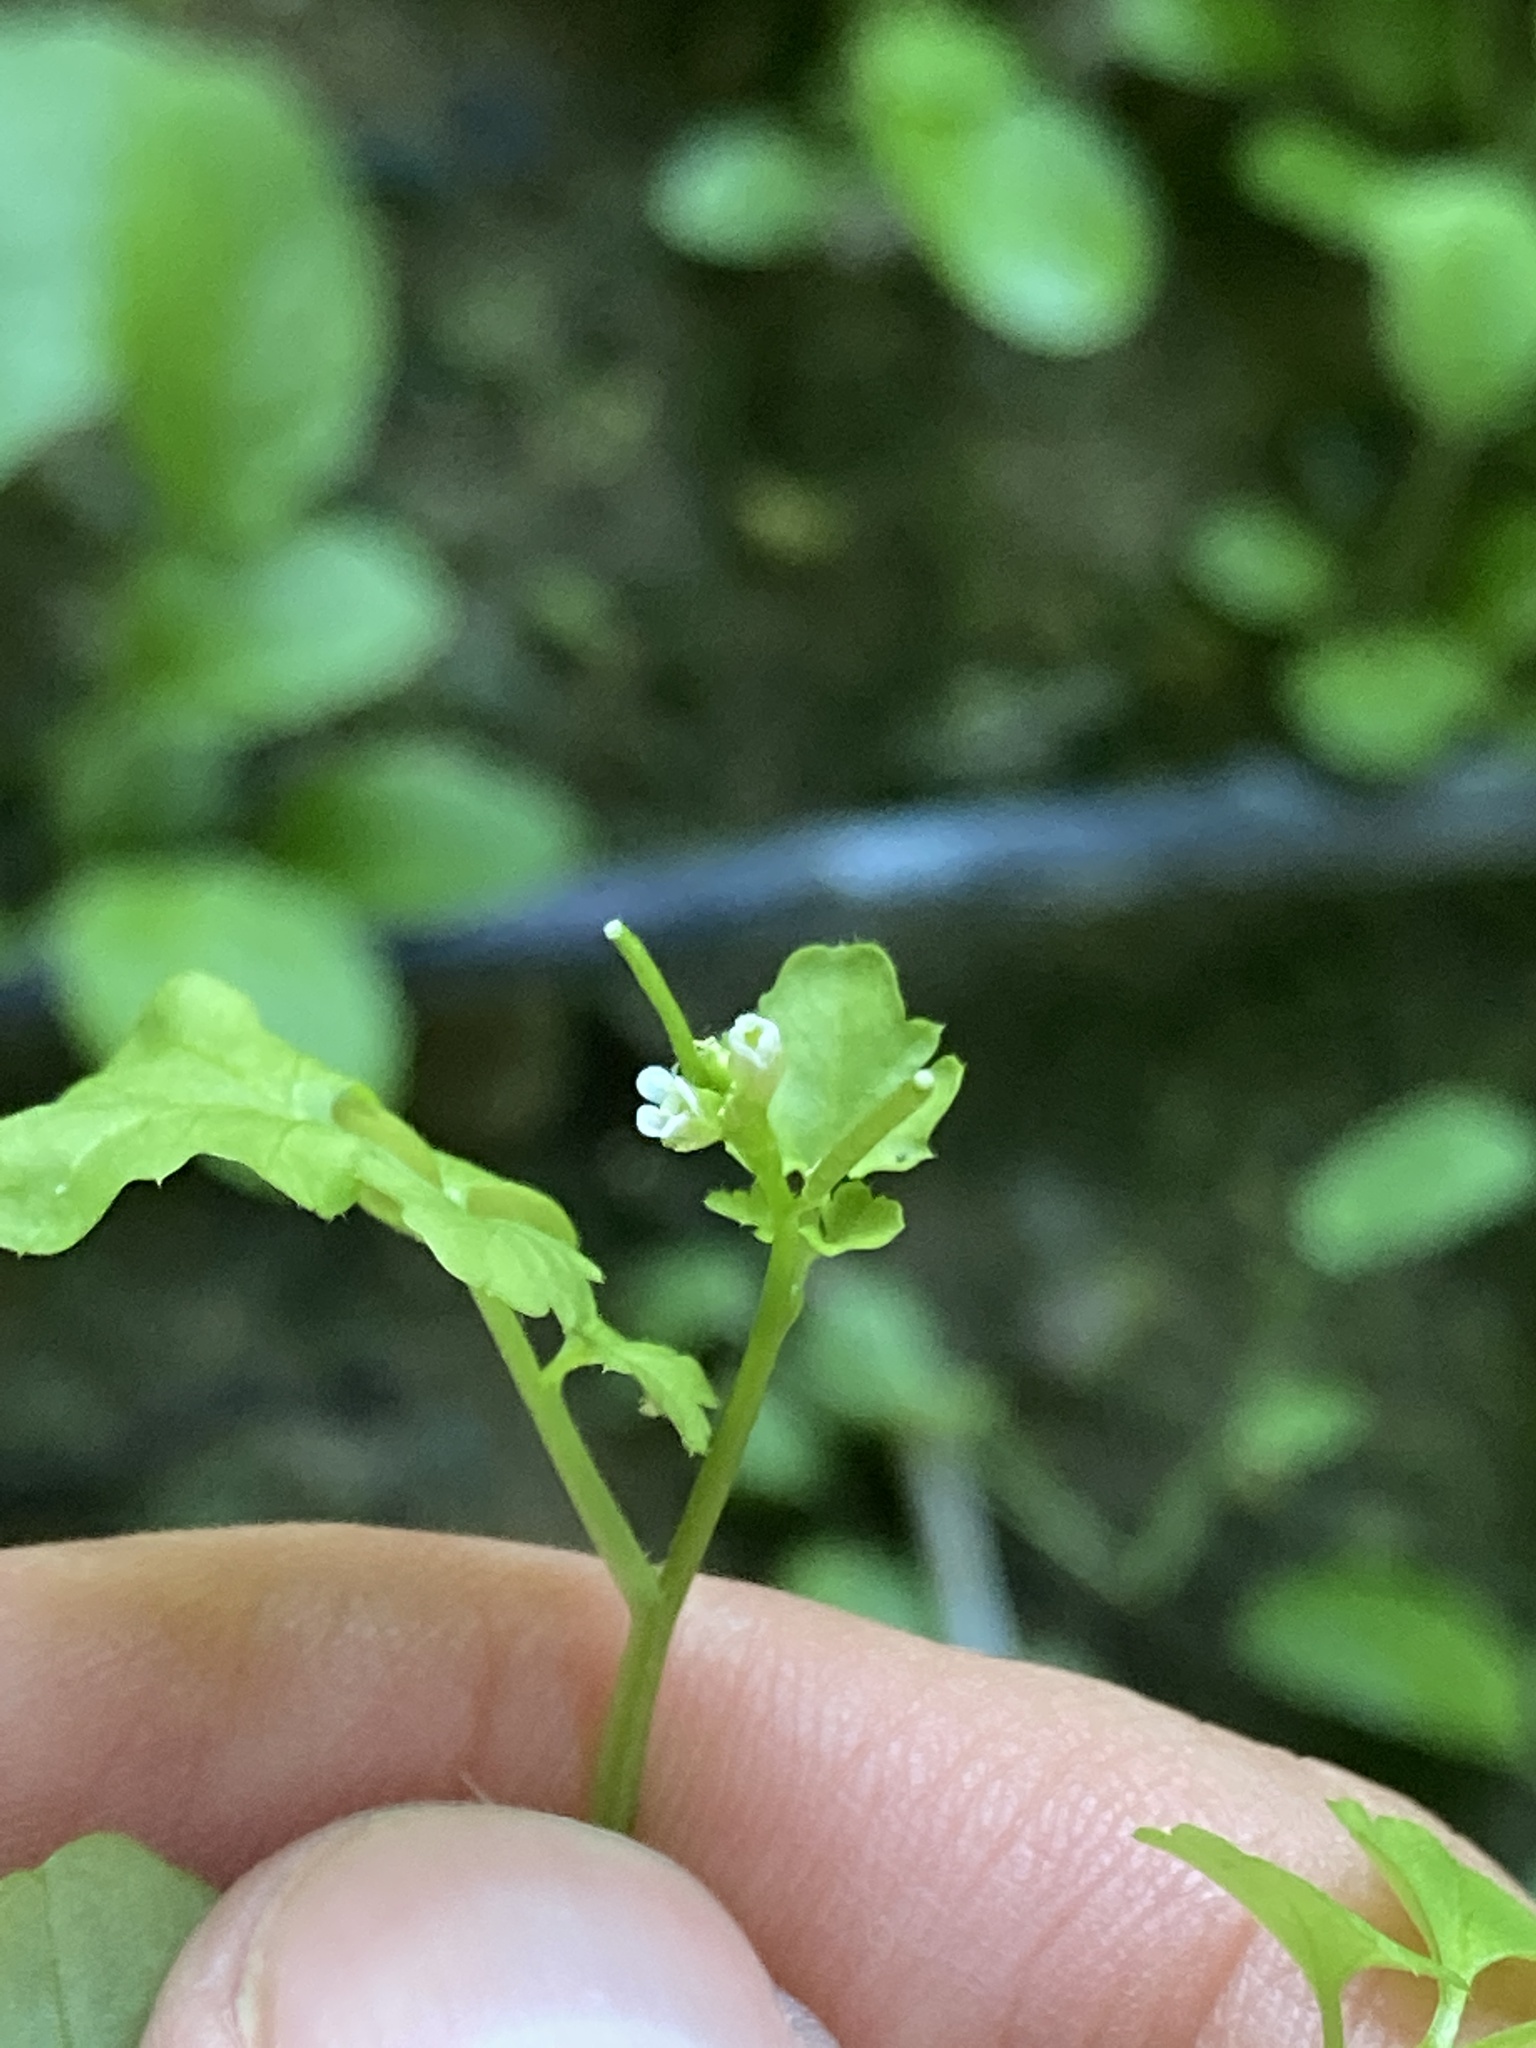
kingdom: Plantae
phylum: Tracheophyta
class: Magnoliopsida
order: Brassicales
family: Brassicaceae
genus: Cardamine
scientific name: Cardamine occulta
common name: Asian wavy bittercress
